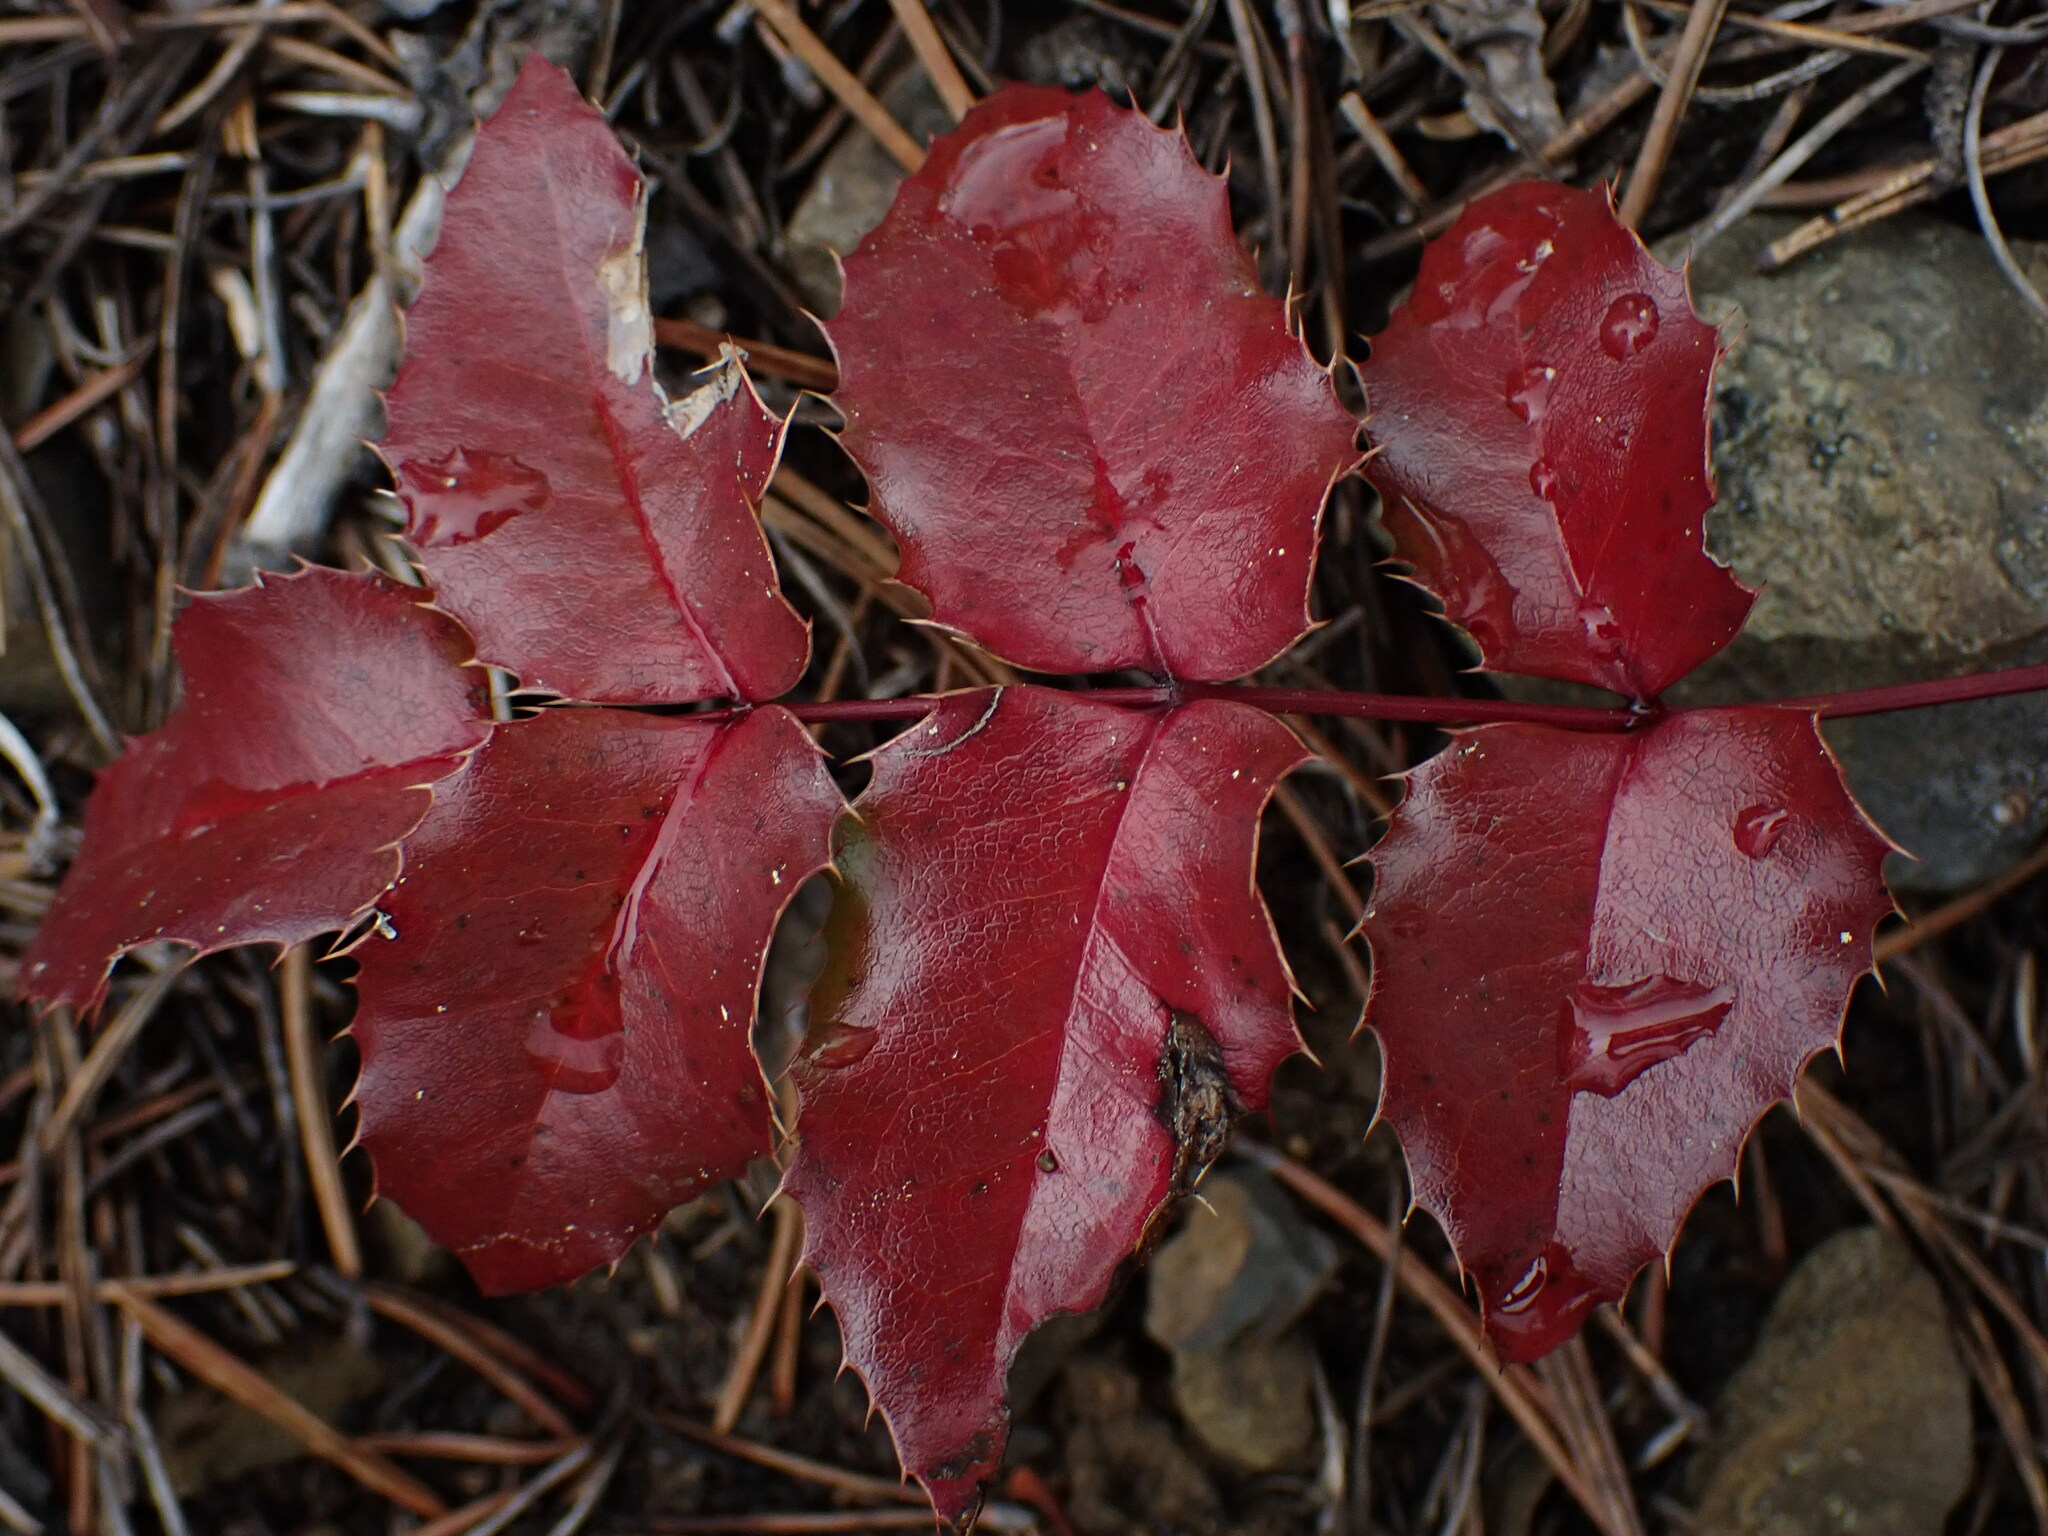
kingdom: Plantae
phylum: Tracheophyta
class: Magnoliopsida
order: Ranunculales
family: Berberidaceae
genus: Mahonia
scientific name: Mahonia aquifolium
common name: Oregon-grape
